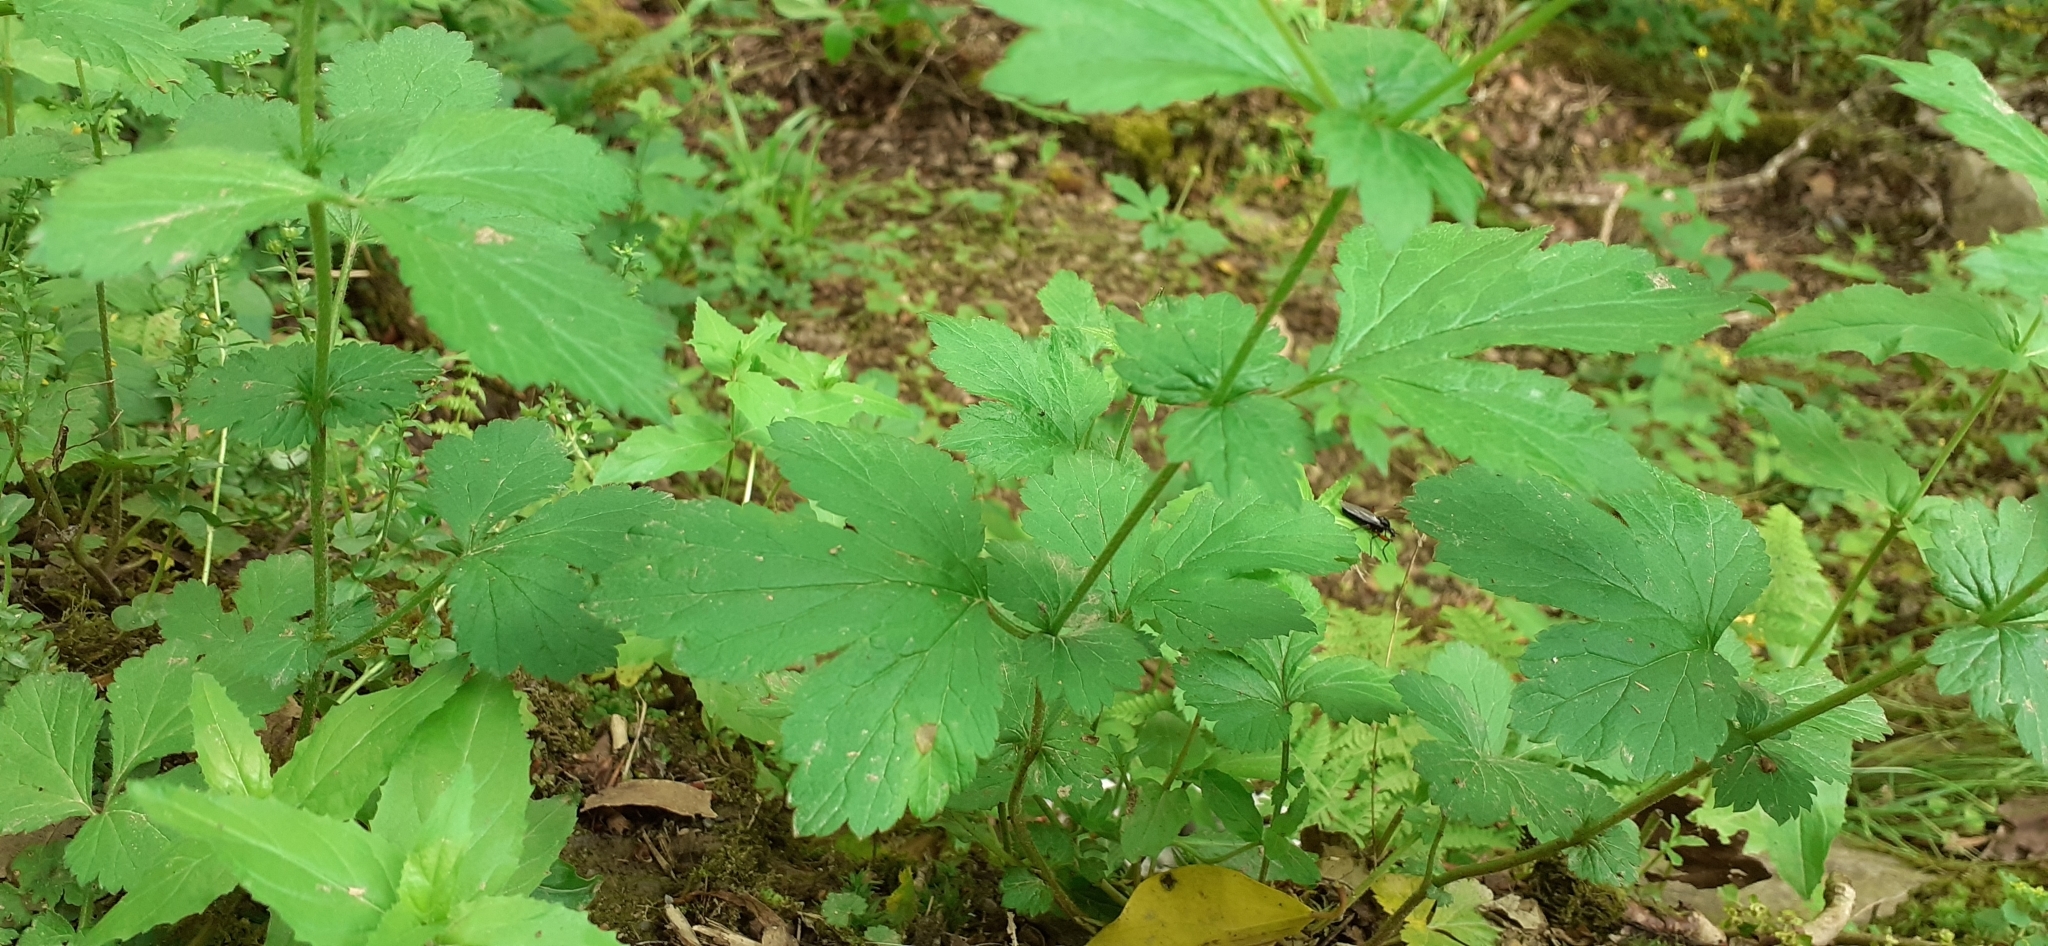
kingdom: Plantae
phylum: Tracheophyta
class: Magnoliopsida
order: Rosales
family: Rosaceae
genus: Geum
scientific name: Geum urbanum
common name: Wood avens
